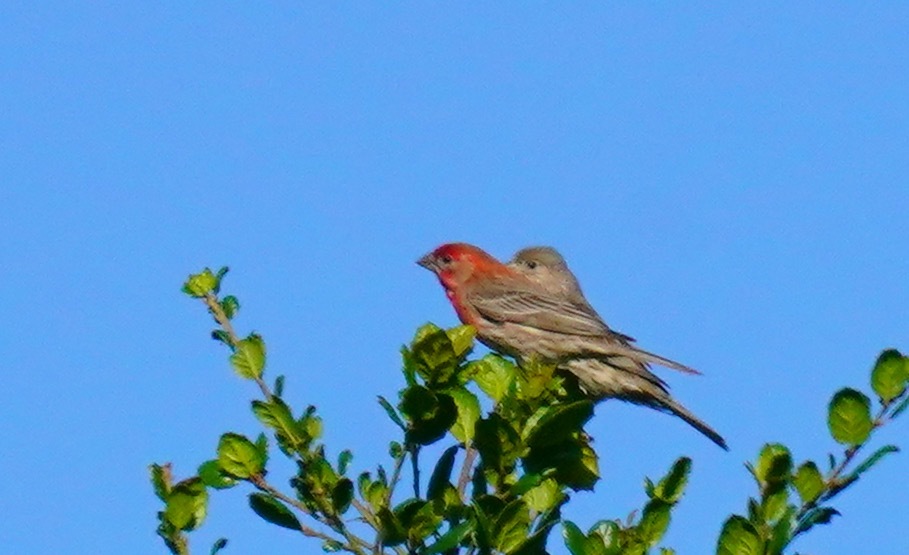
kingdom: Animalia
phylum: Chordata
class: Aves
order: Passeriformes
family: Fringillidae
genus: Haemorhous
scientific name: Haemorhous mexicanus
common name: House finch
